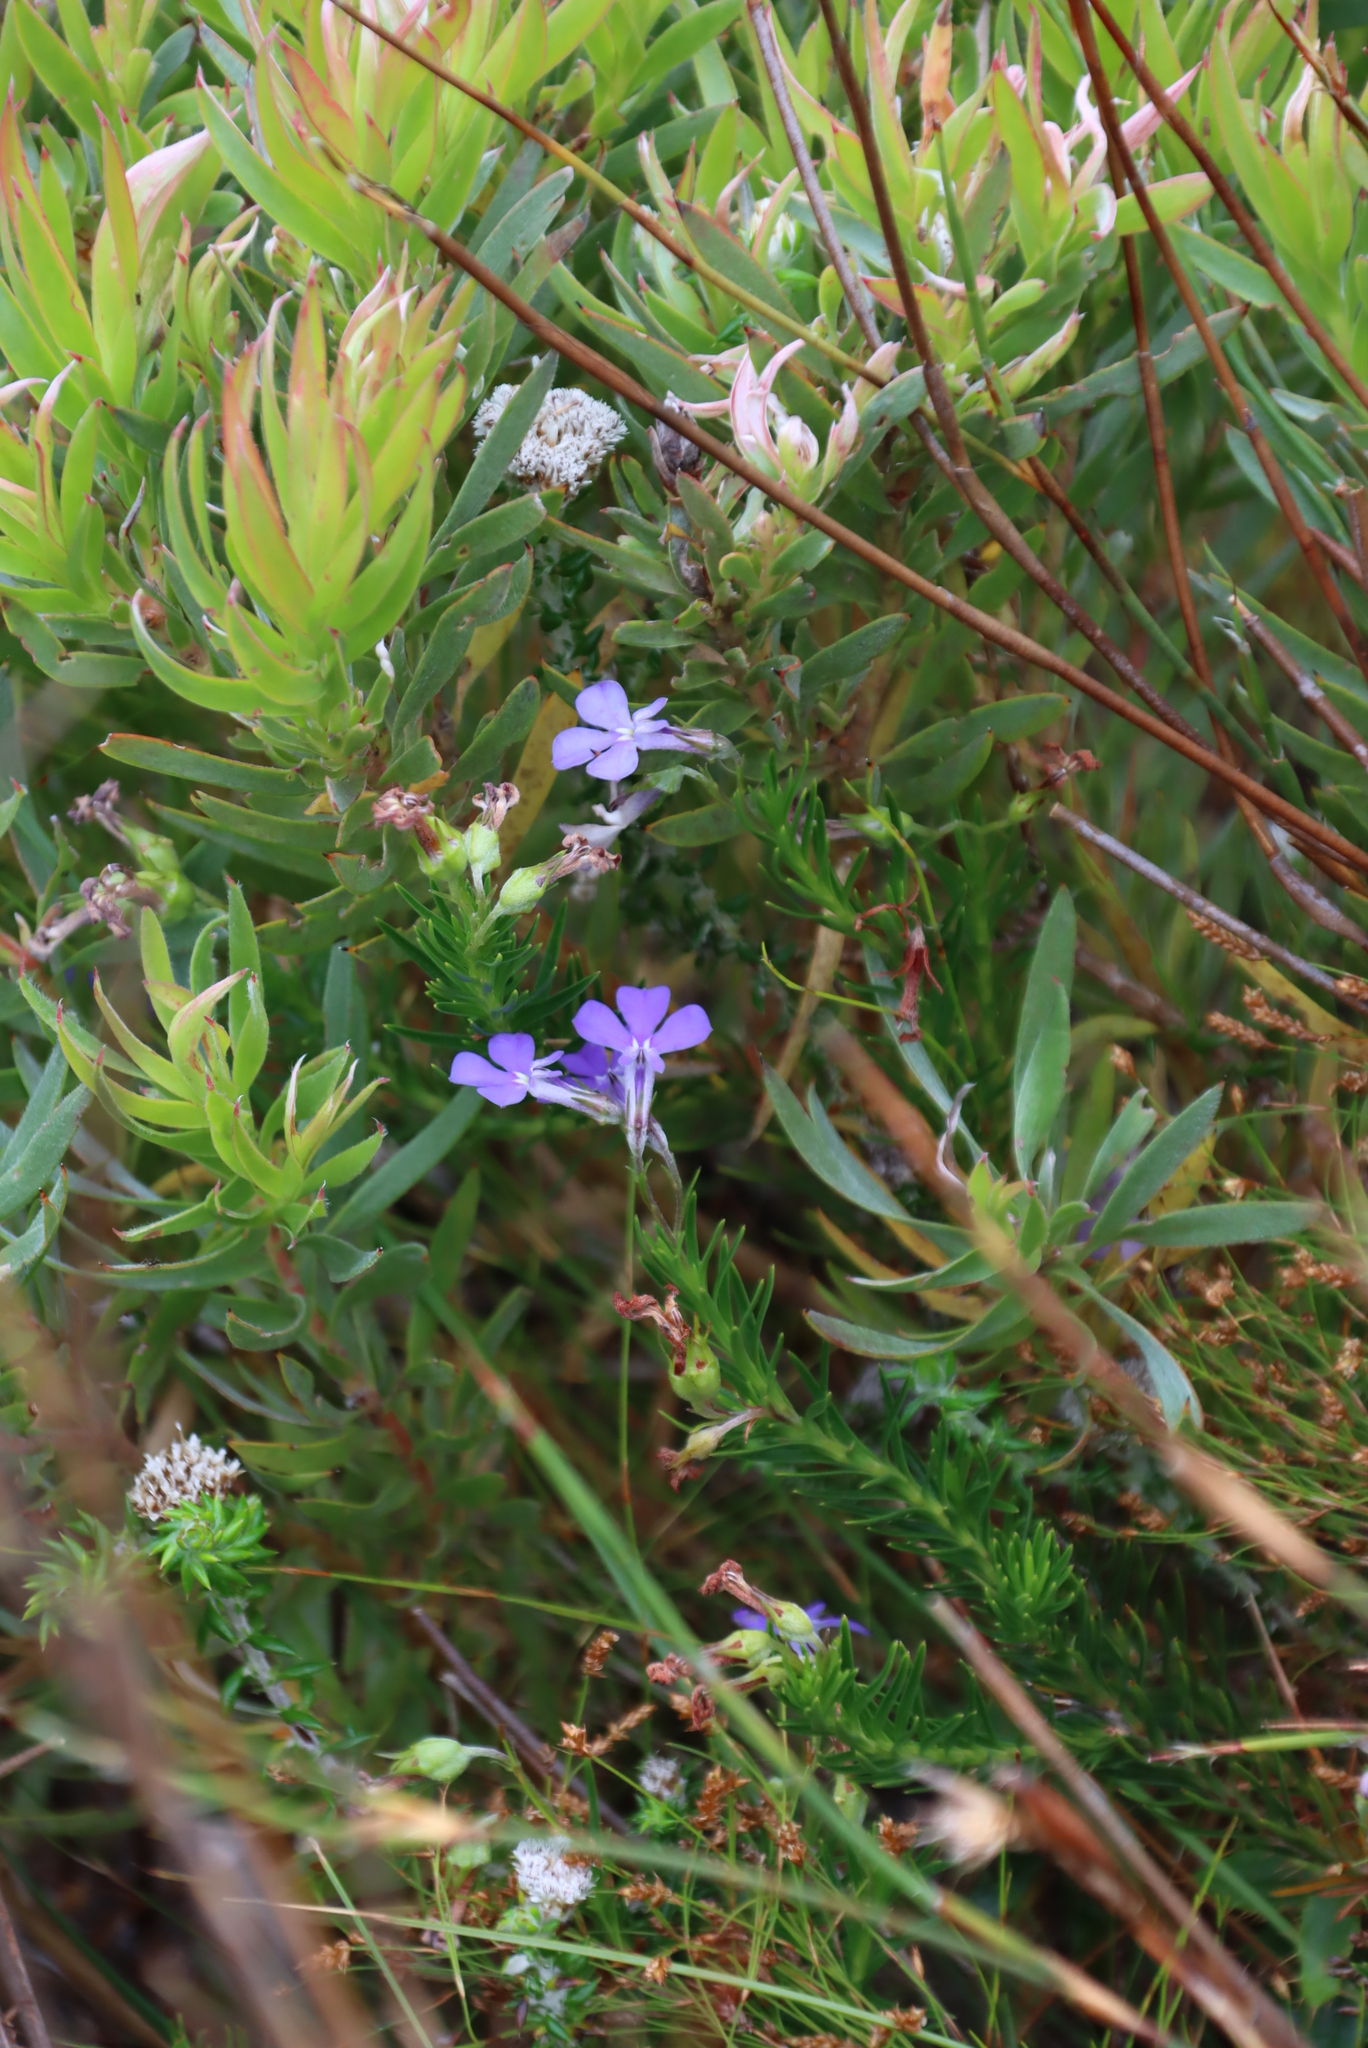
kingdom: Plantae
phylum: Tracheophyta
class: Magnoliopsida
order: Asterales
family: Campanulaceae
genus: Lobelia
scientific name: Lobelia pinifolia
